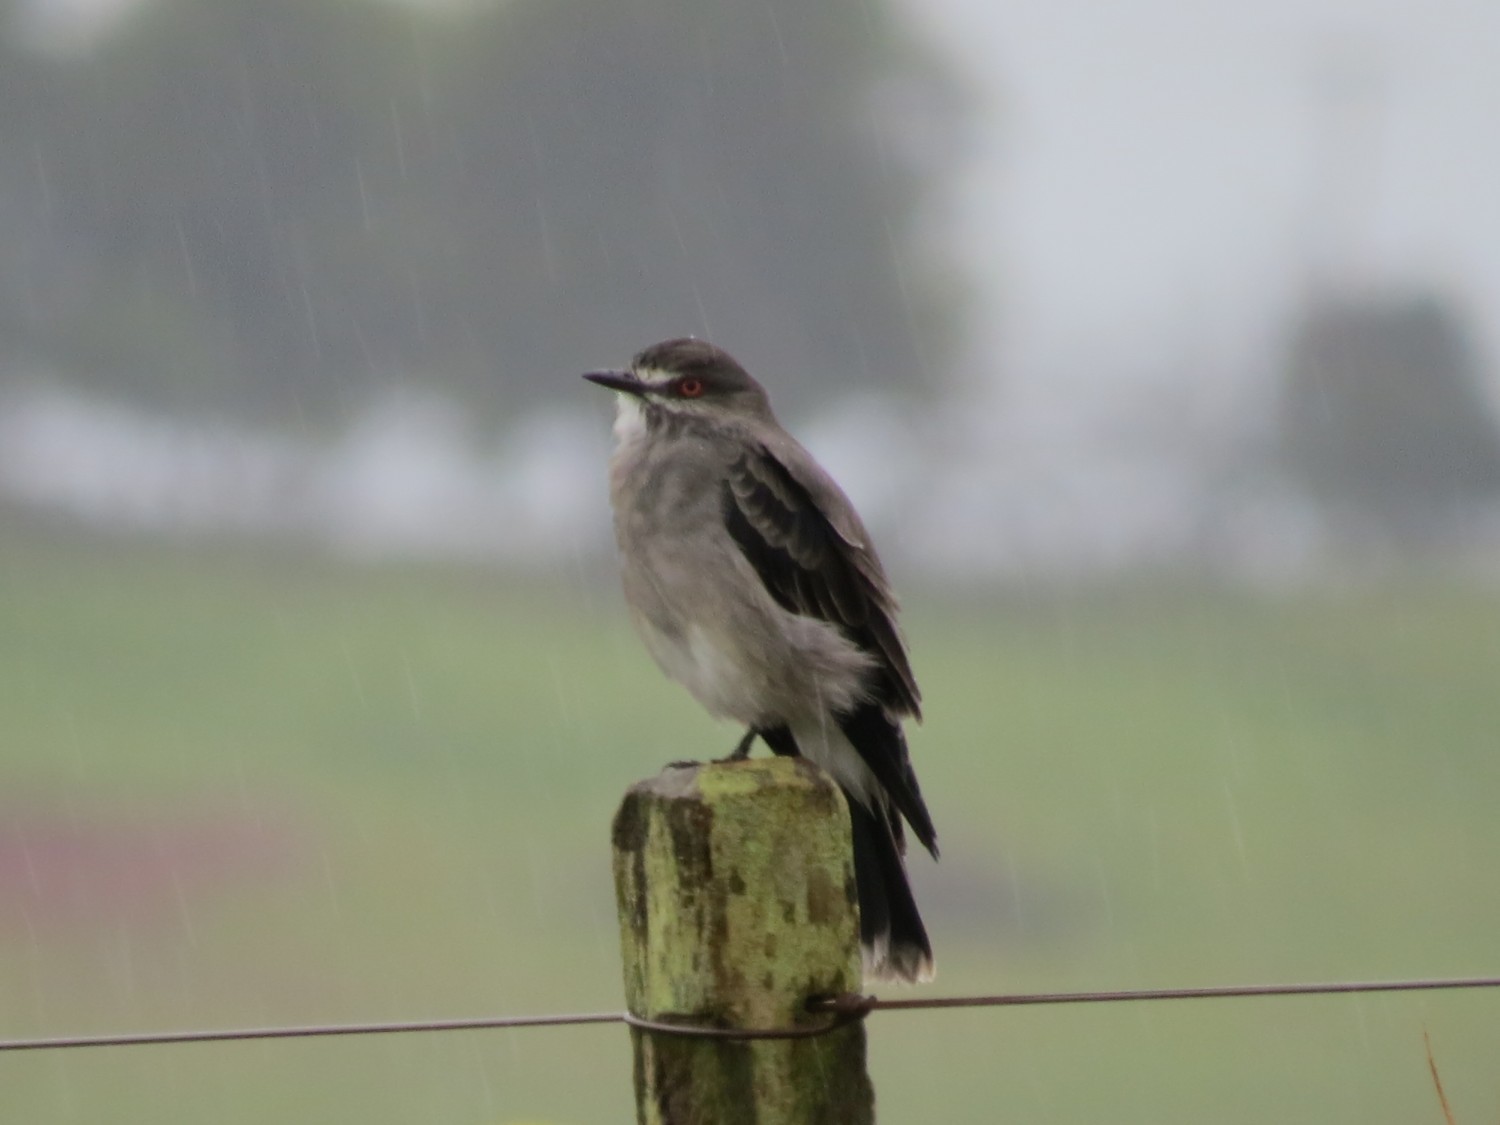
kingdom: Animalia
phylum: Chordata
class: Aves
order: Passeriformes
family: Tyrannidae
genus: Xolmis
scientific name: Xolmis cinereus
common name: Grey monjita
